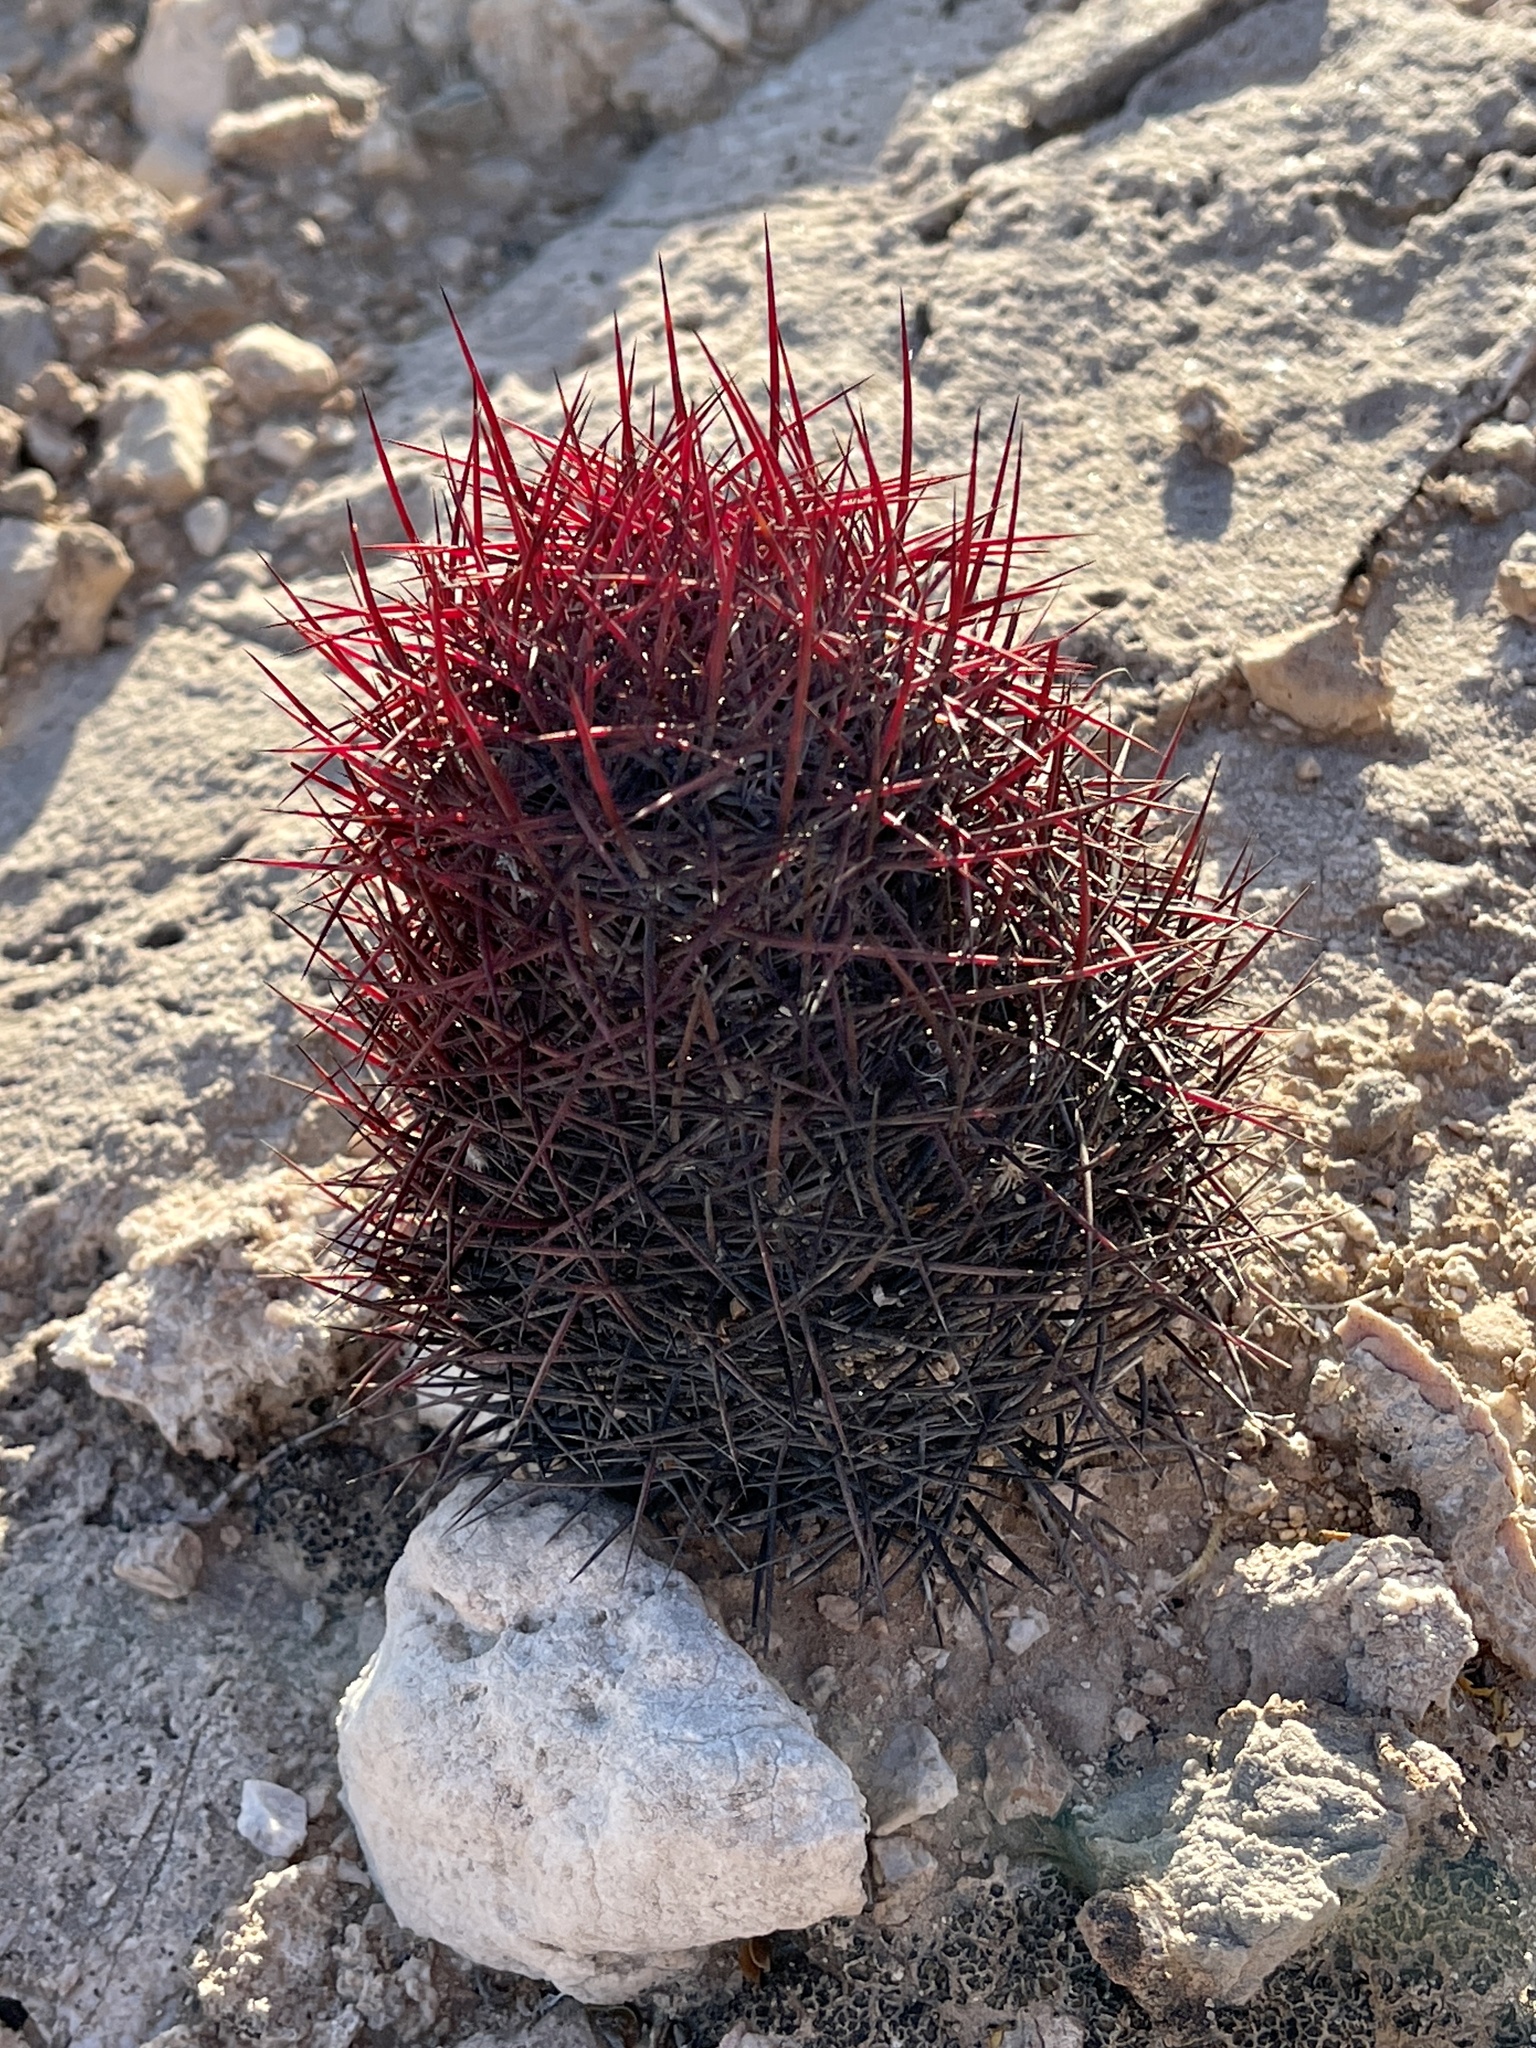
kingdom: Plantae
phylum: Tracheophyta
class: Magnoliopsida
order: Caryophyllales
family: Cactaceae
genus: Sclerocactus
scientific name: Sclerocactus johnsonii
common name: Eight-spine fishhook cactus
